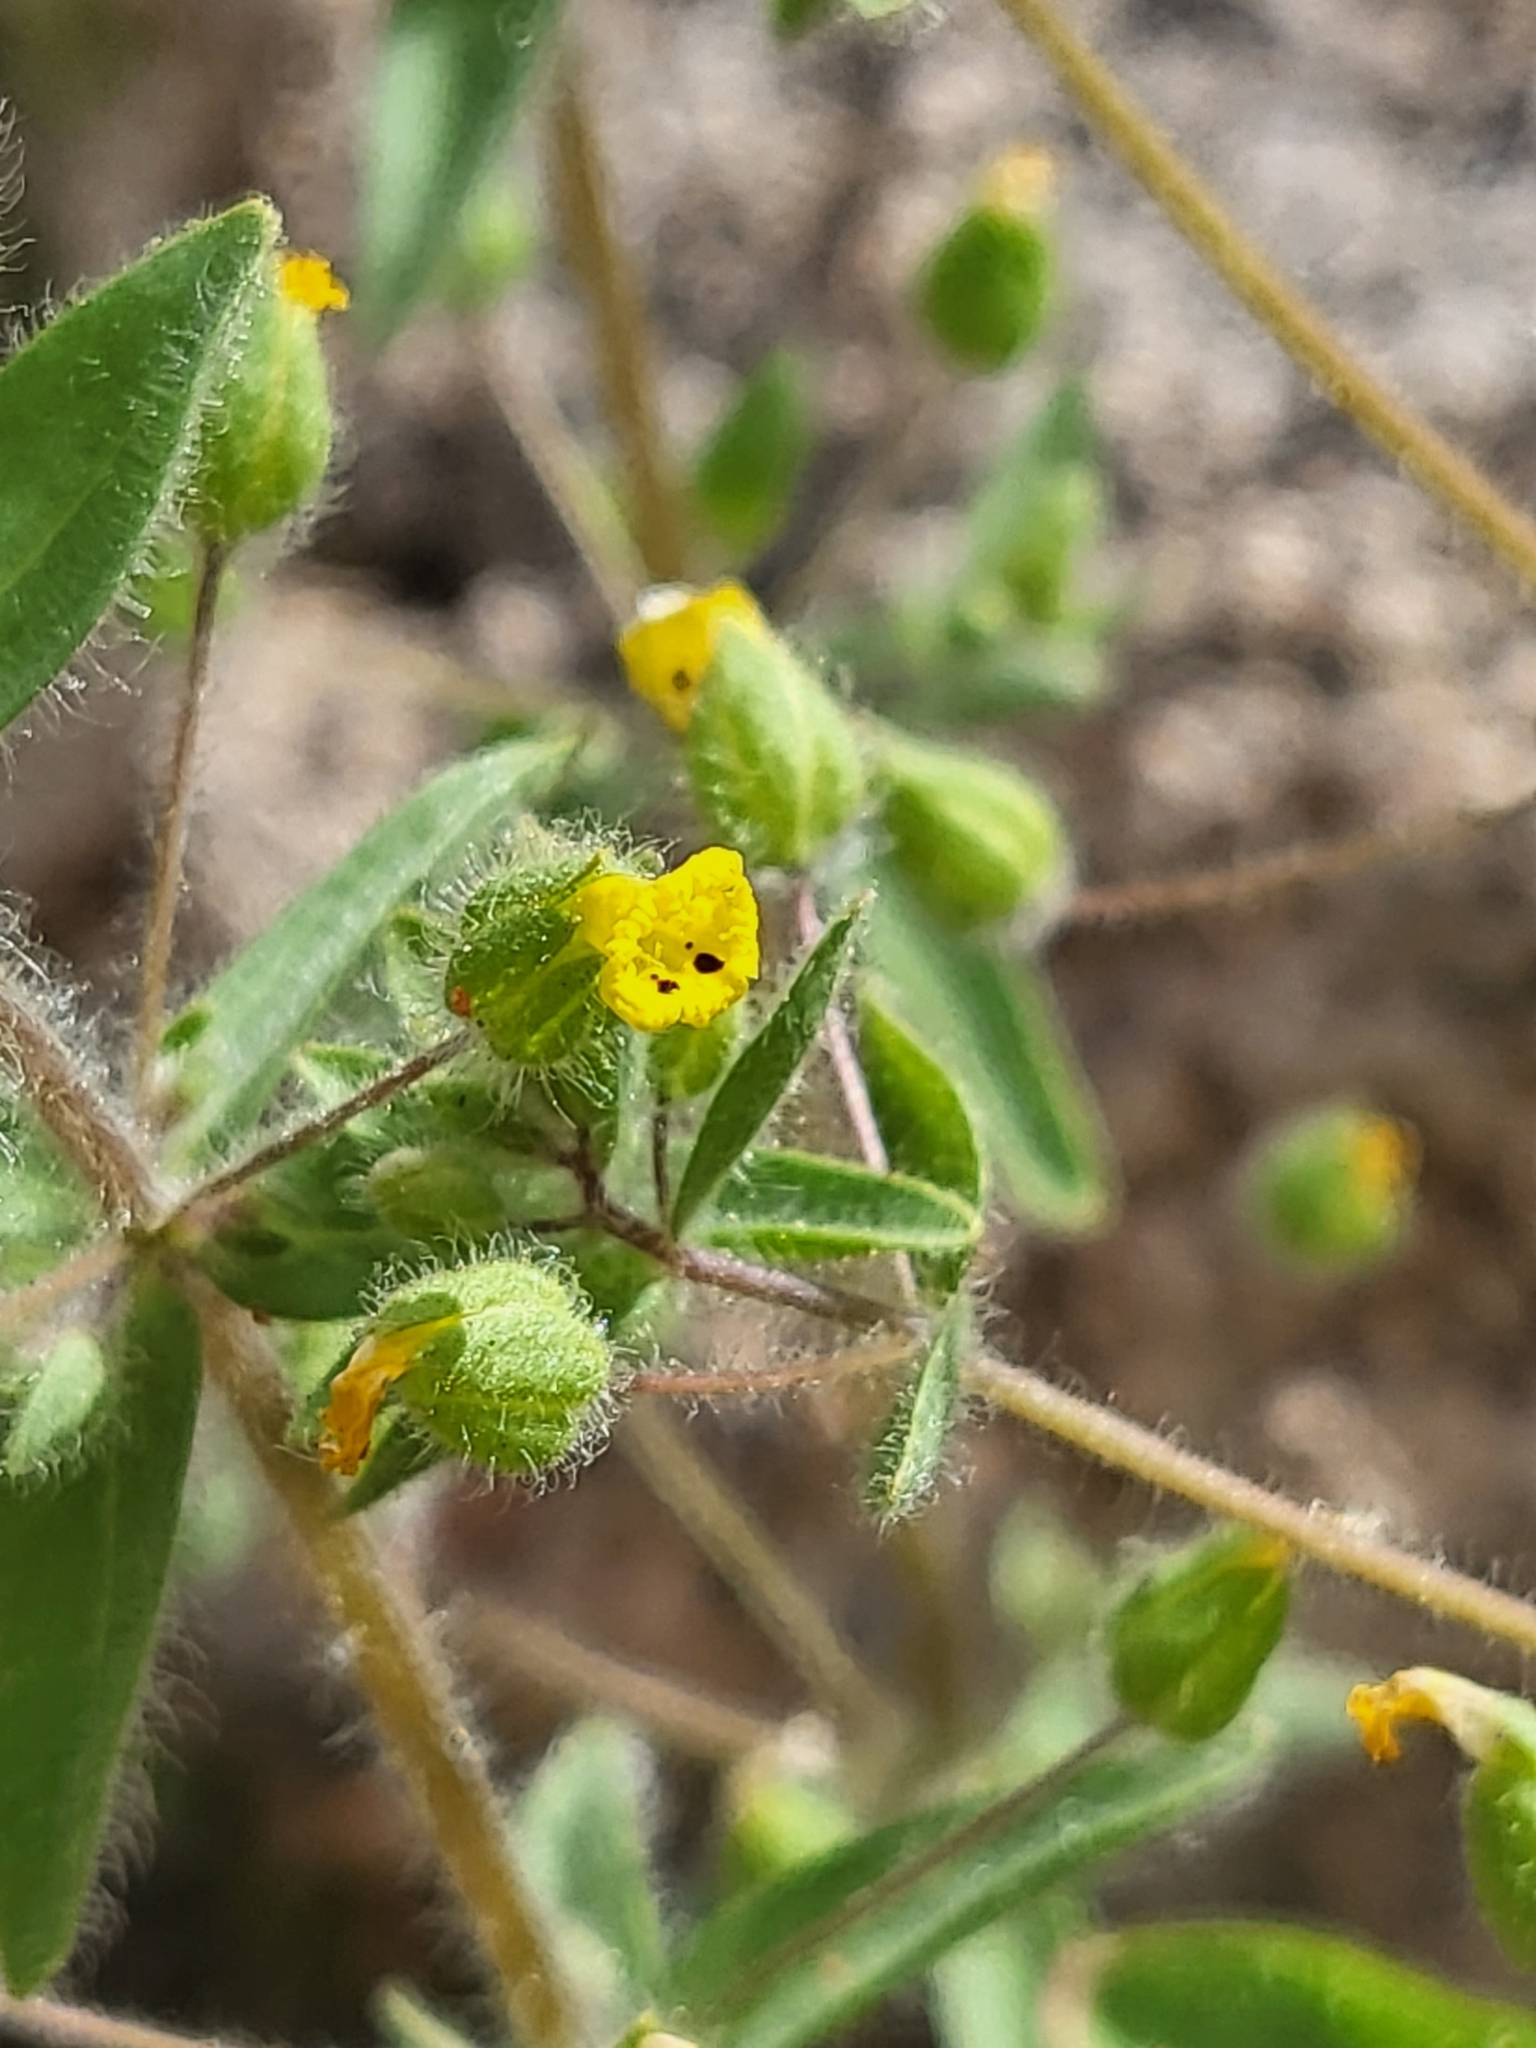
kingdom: Plantae
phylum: Tracheophyta
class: Magnoliopsida
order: Lamiales
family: Phrymaceae
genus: Mimetanthe
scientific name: Mimetanthe pilosa
